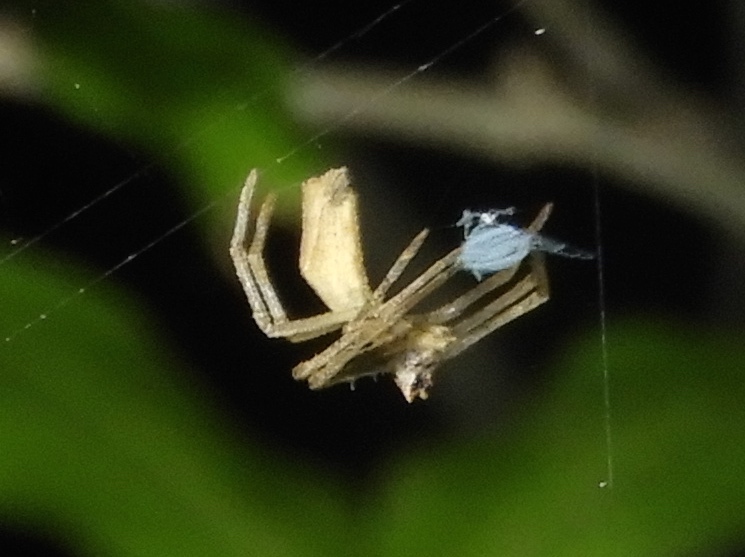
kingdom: Animalia
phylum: Arthropoda
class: Arachnida
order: Araneae
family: Deinopidae
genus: Deinopis
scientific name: Deinopis aurita
